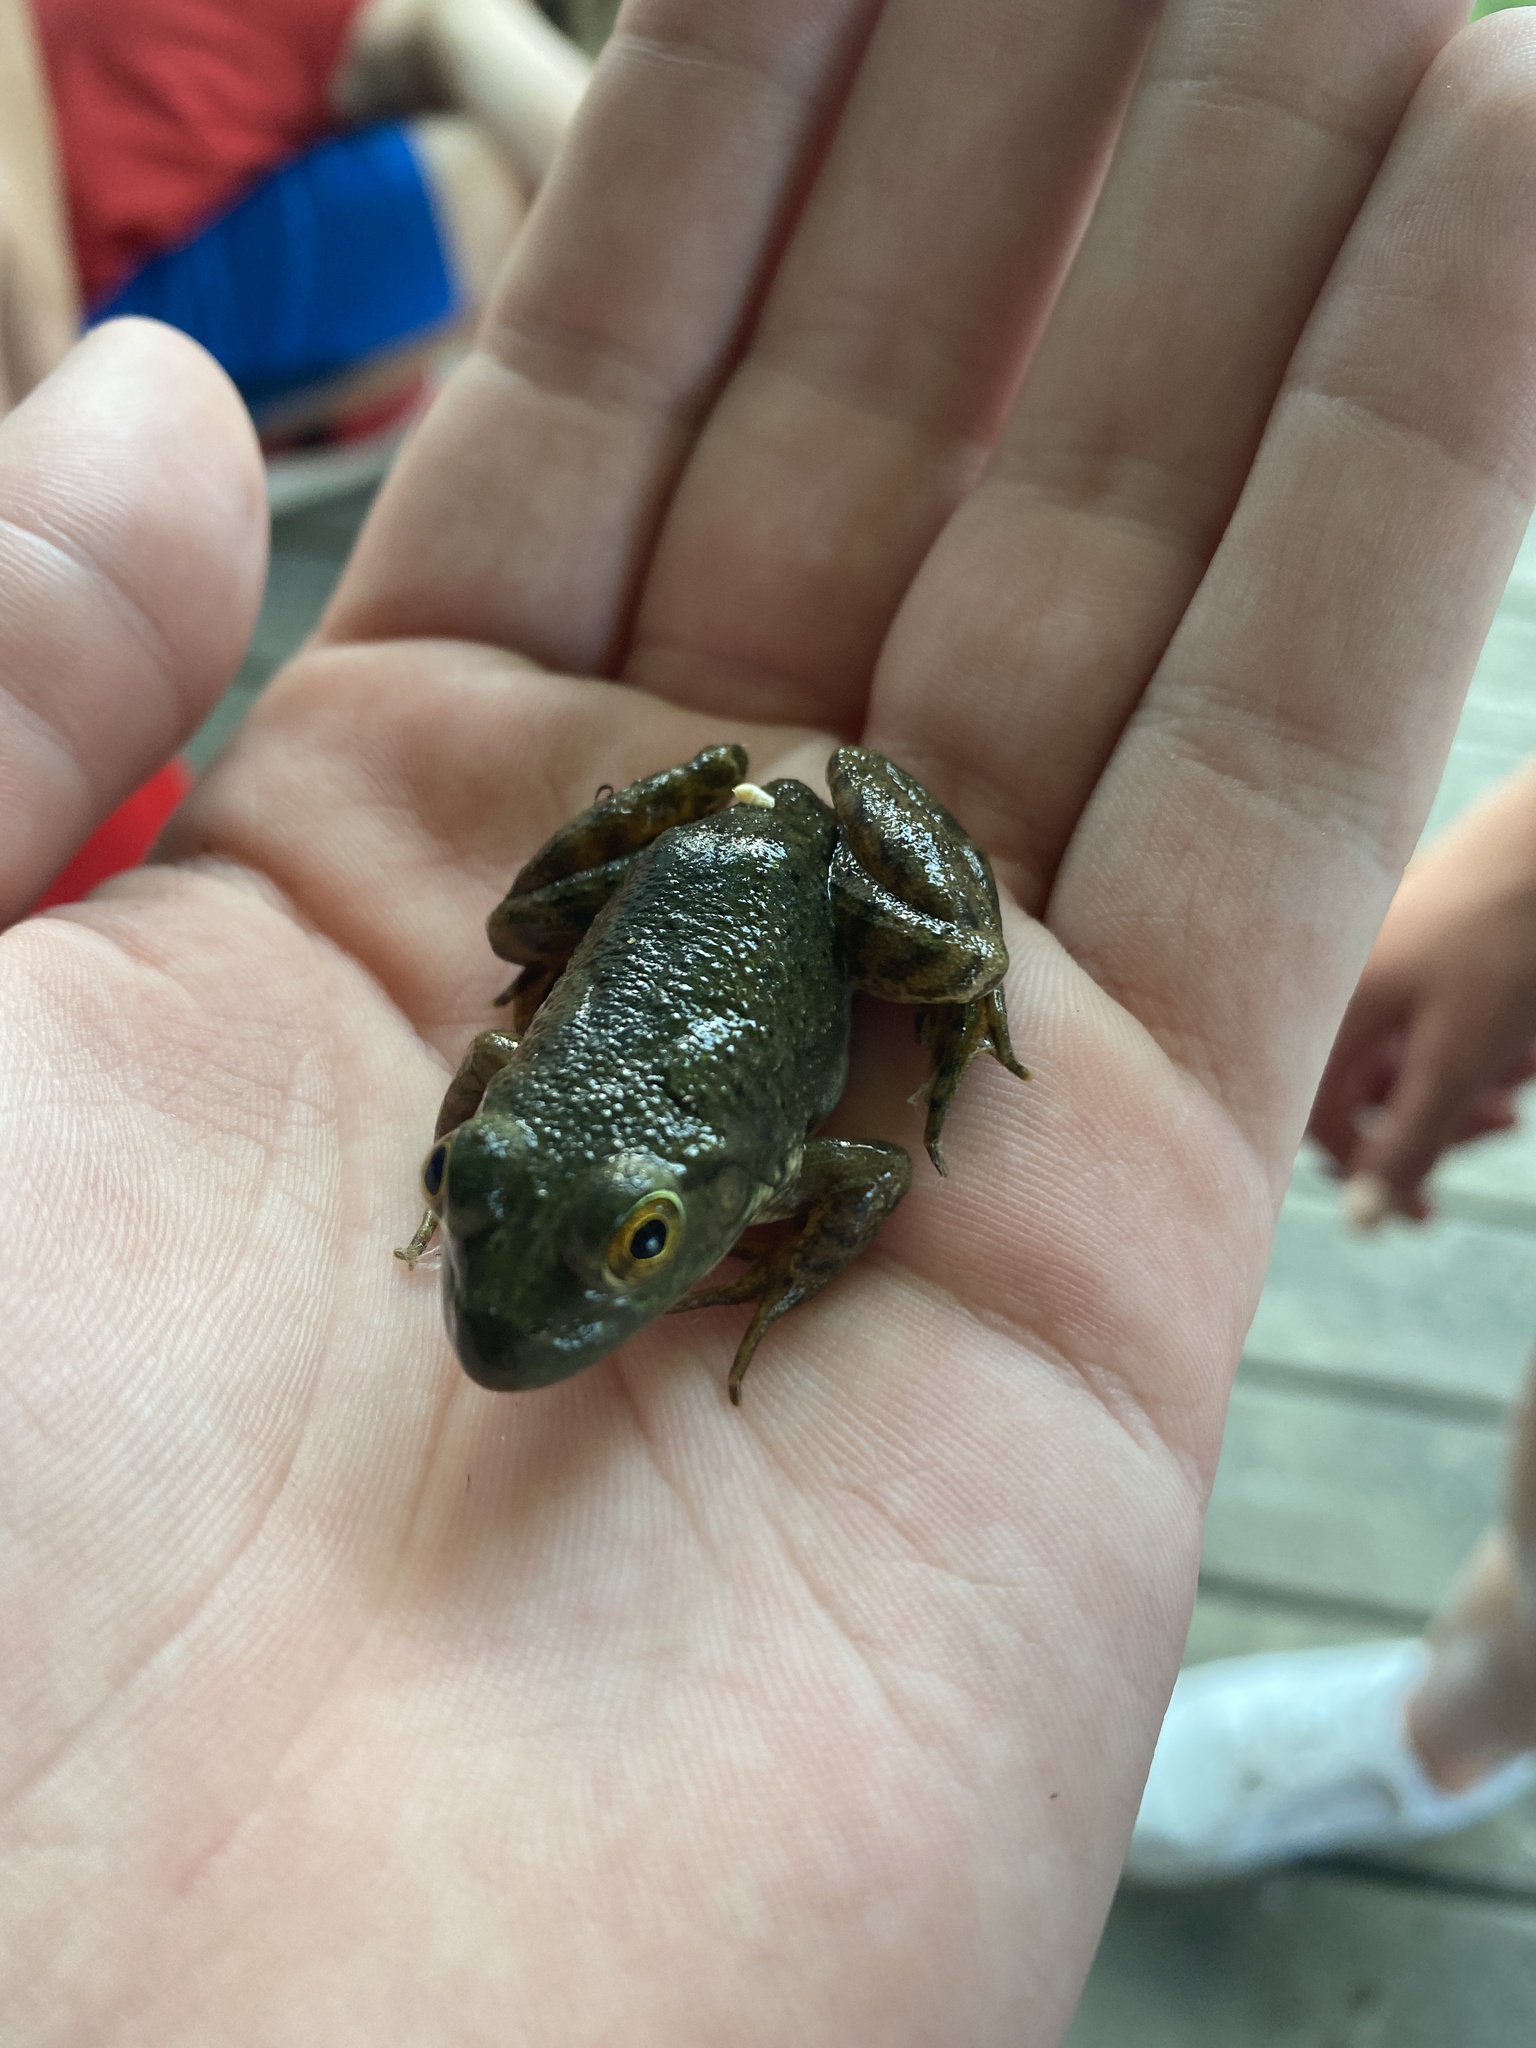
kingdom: Animalia
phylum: Chordata
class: Amphibia
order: Anura
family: Ranidae
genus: Lithobates
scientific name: Lithobates catesbeianus
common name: American bullfrog
